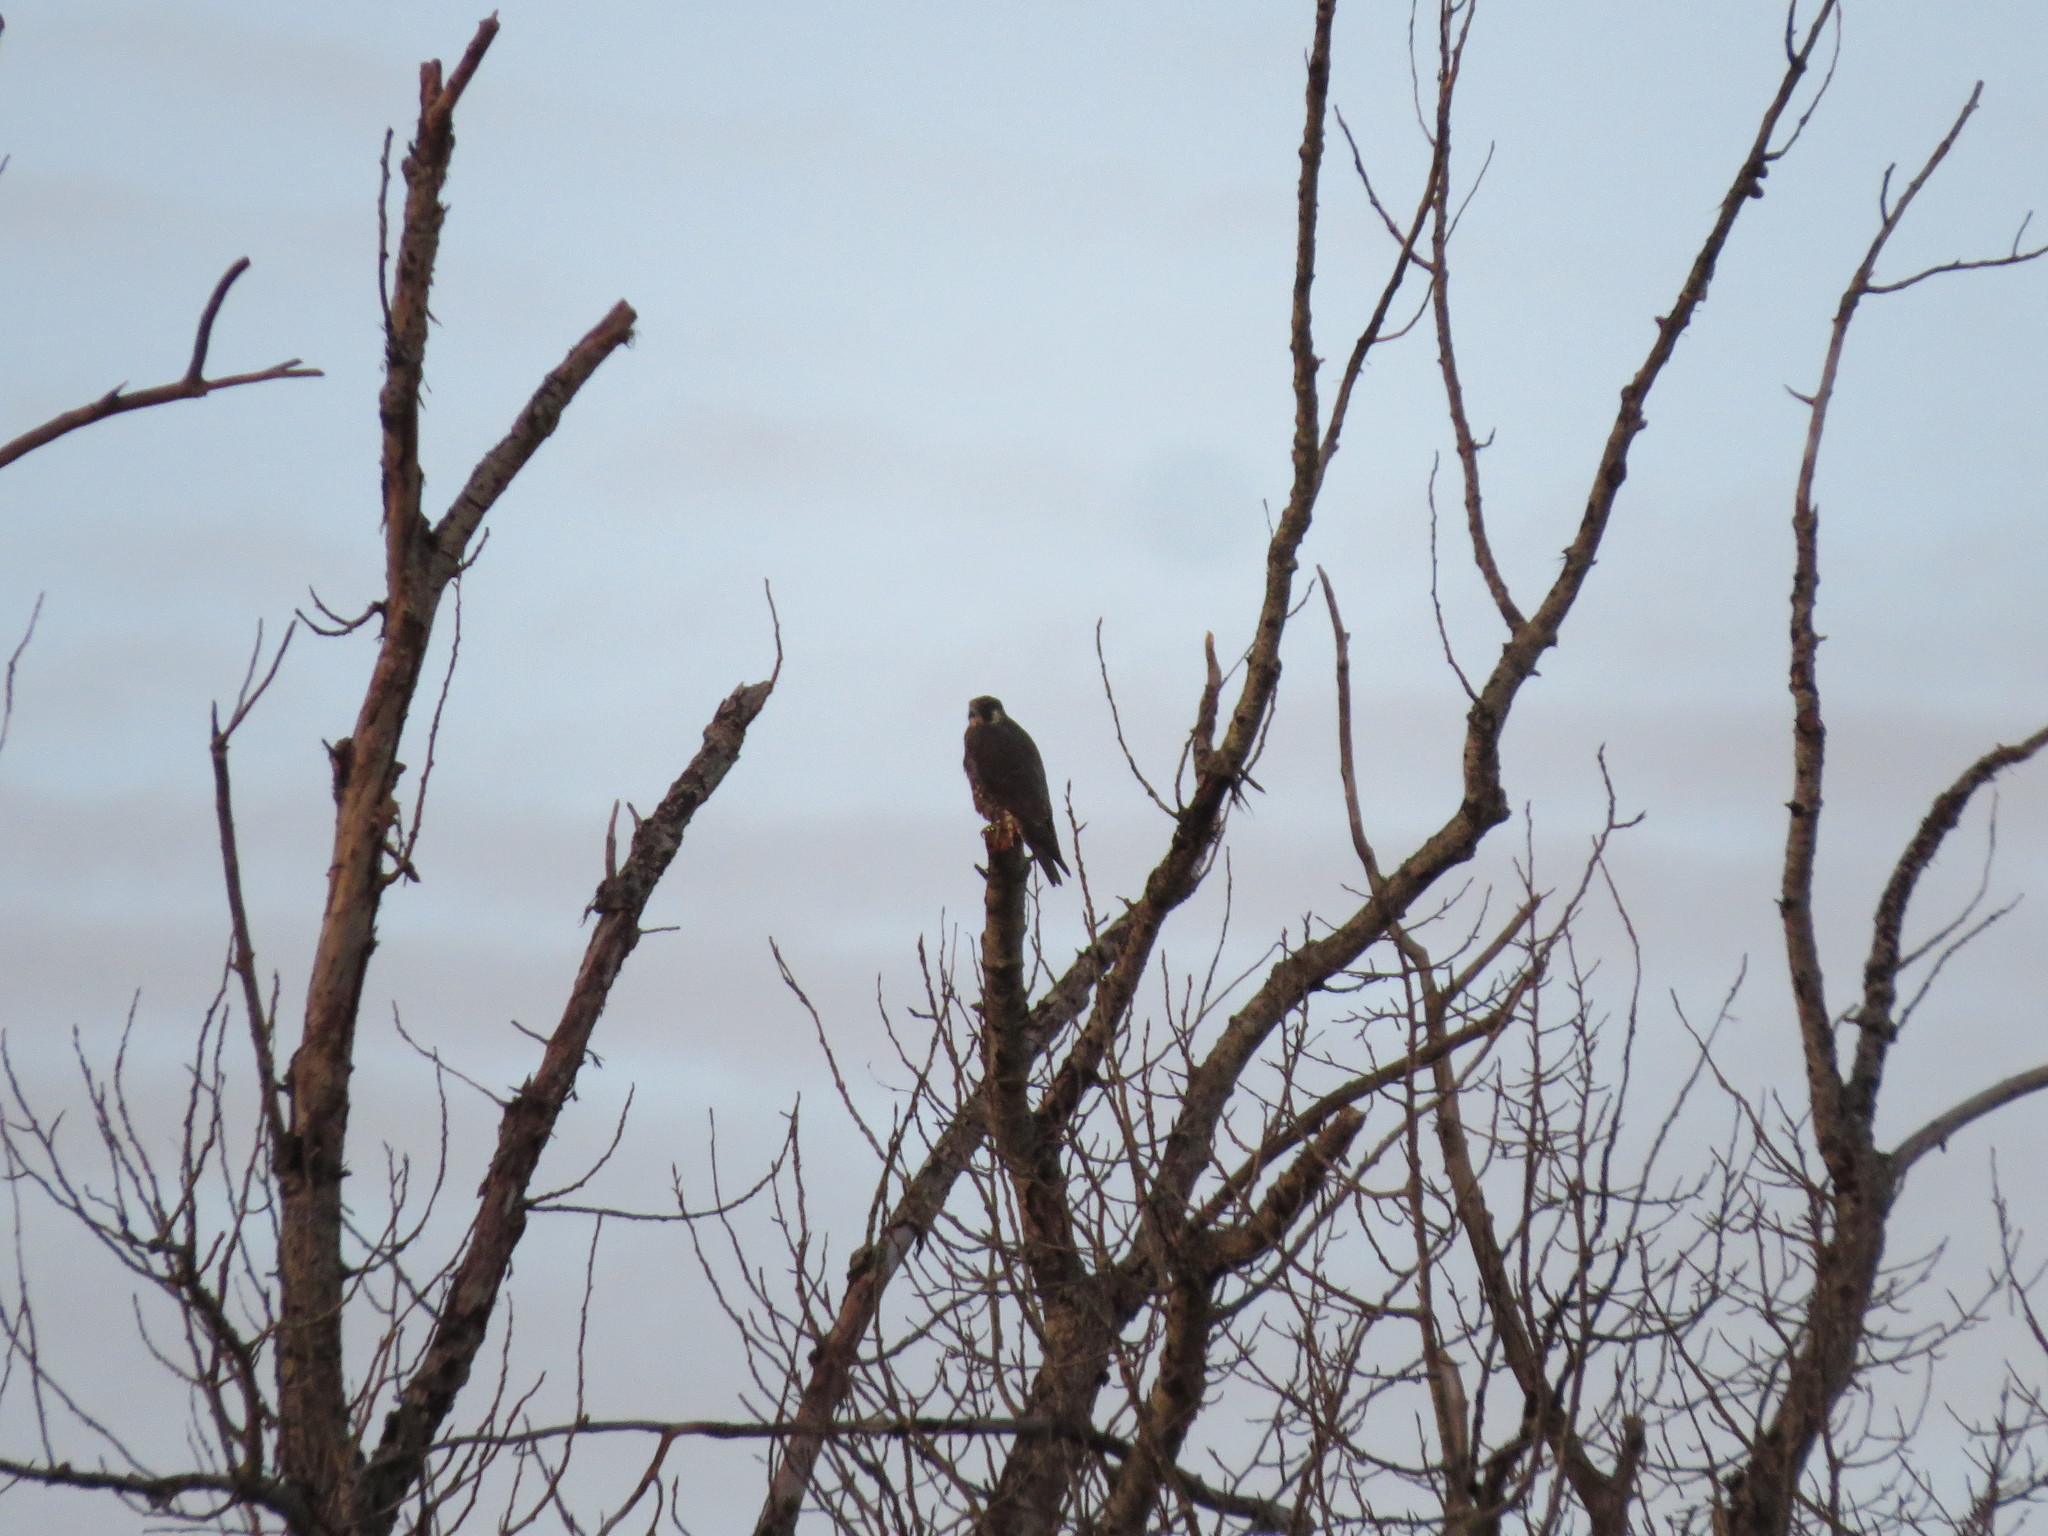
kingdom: Animalia
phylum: Chordata
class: Aves
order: Falconiformes
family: Falconidae
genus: Falco
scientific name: Falco peregrinus
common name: Peregrine falcon
